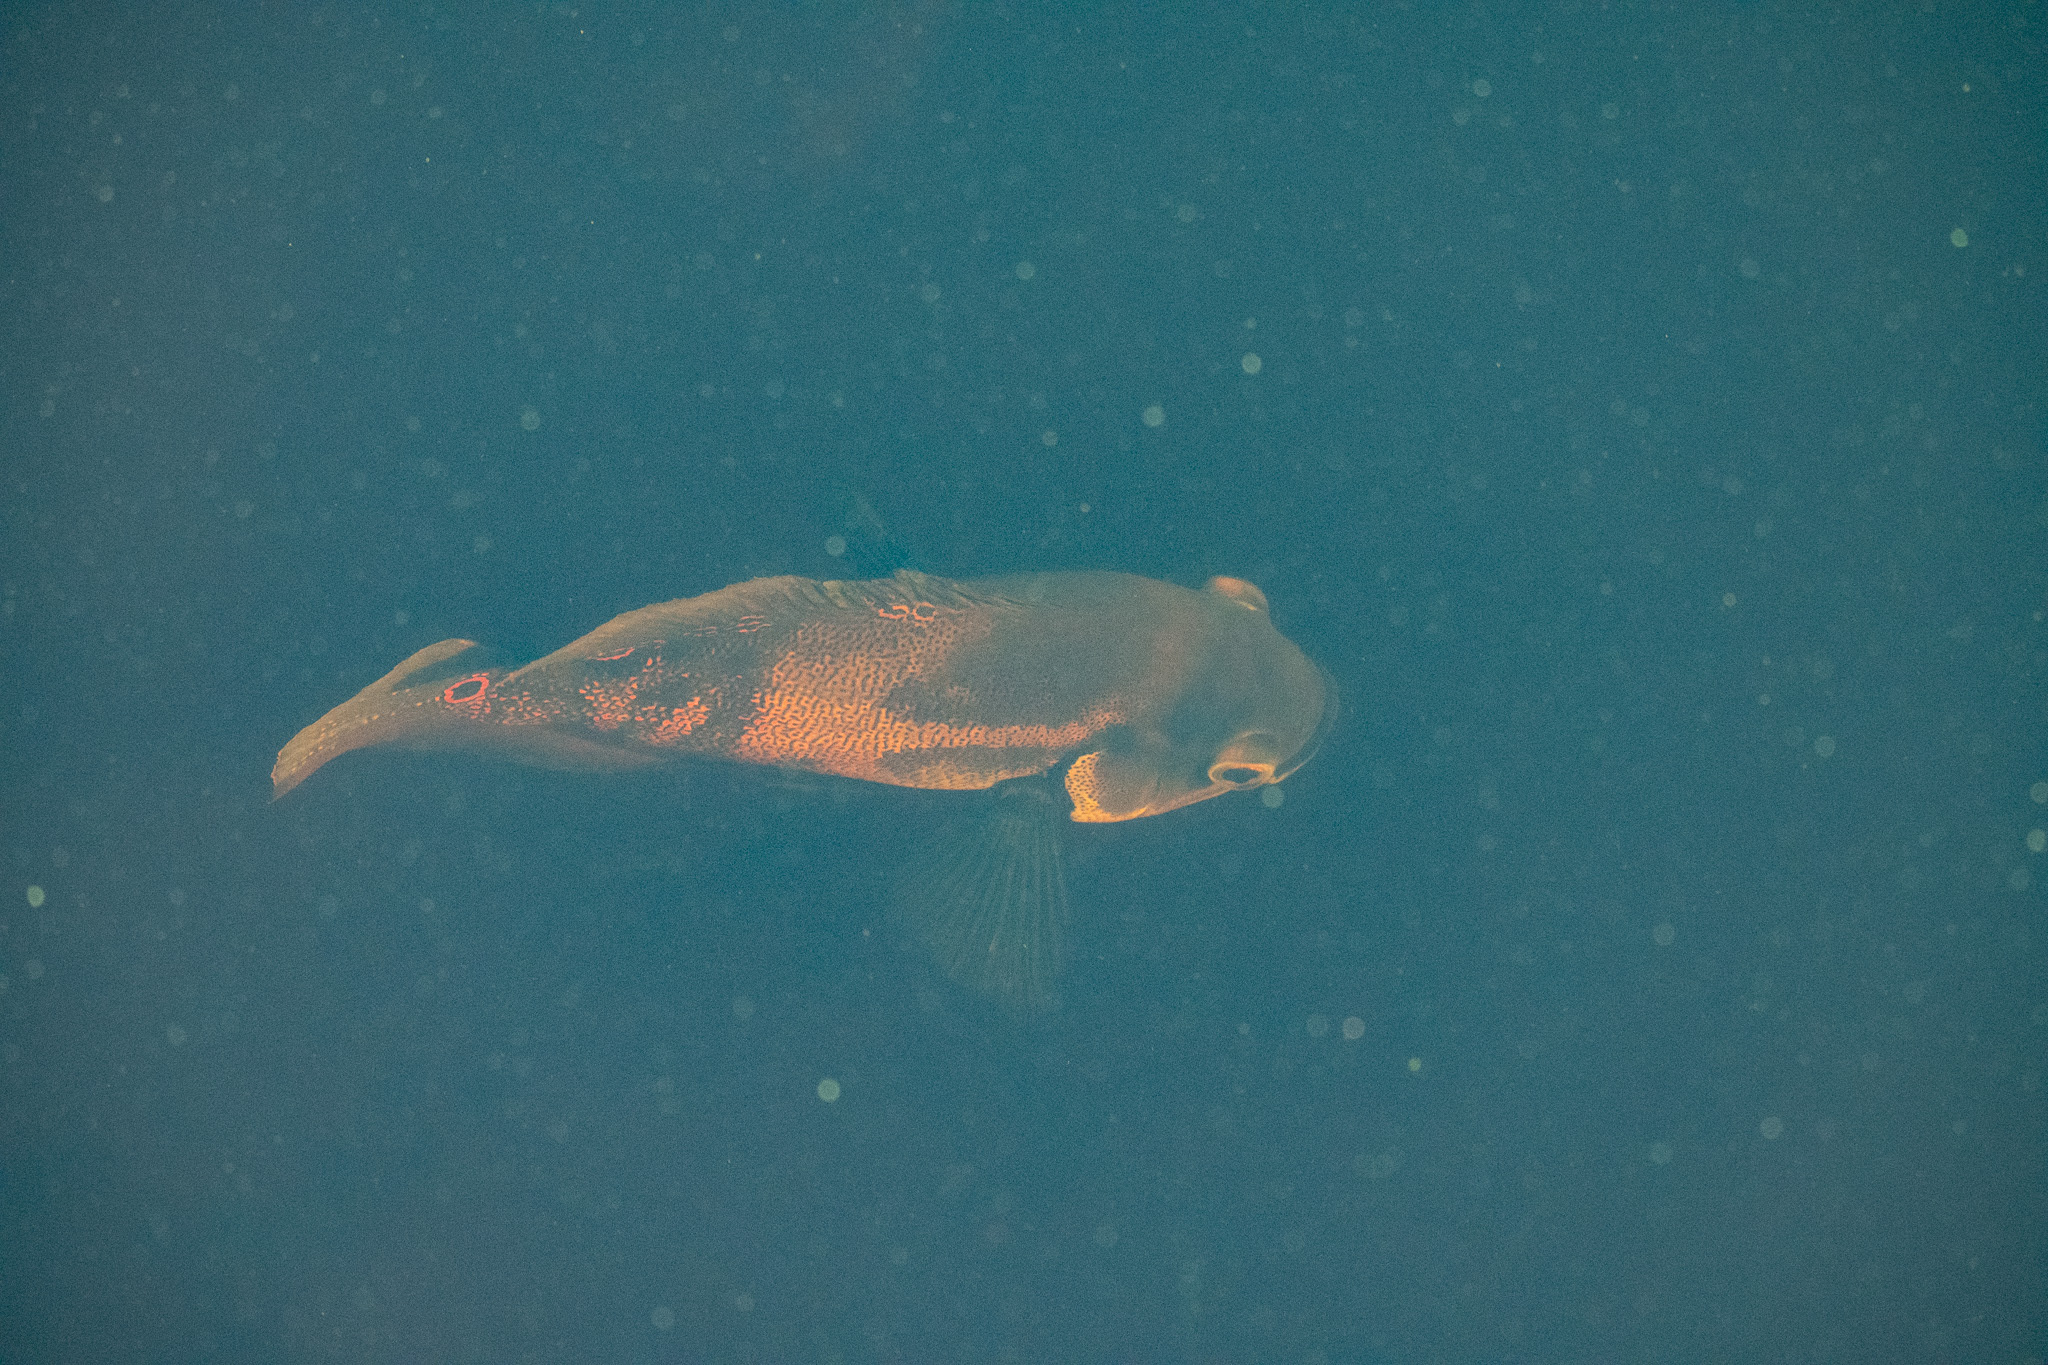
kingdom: Animalia
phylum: Chordata
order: Perciformes
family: Cichlidae
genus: Astronotus
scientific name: Astronotus ocellatus
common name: Oscar
